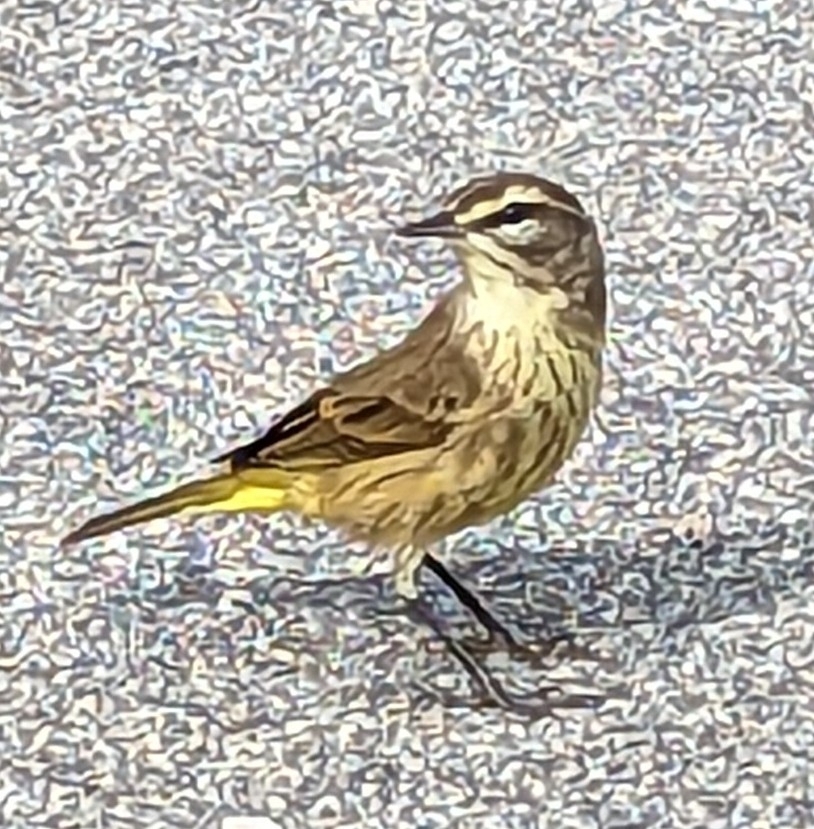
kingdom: Animalia
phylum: Chordata
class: Aves
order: Passeriformes
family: Parulidae
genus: Setophaga
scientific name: Setophaga palmarum
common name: Palm warbler
